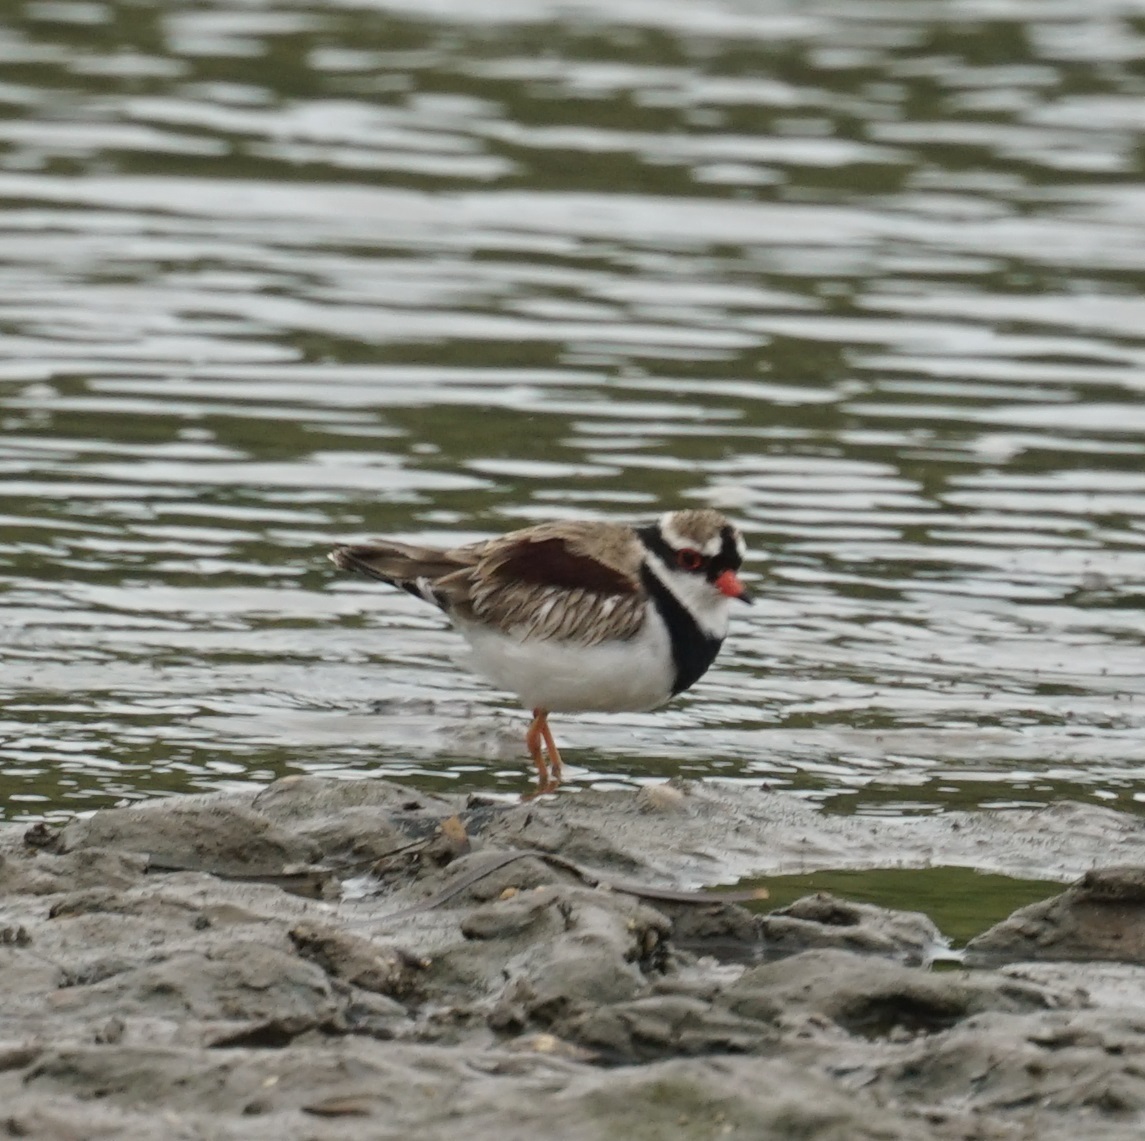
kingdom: Animalia
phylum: Chordata
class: Aves
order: Charadriiformes
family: Charadriidae
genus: Elseyornis
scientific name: Elseyornis melanops
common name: Black-fronted dotterel
